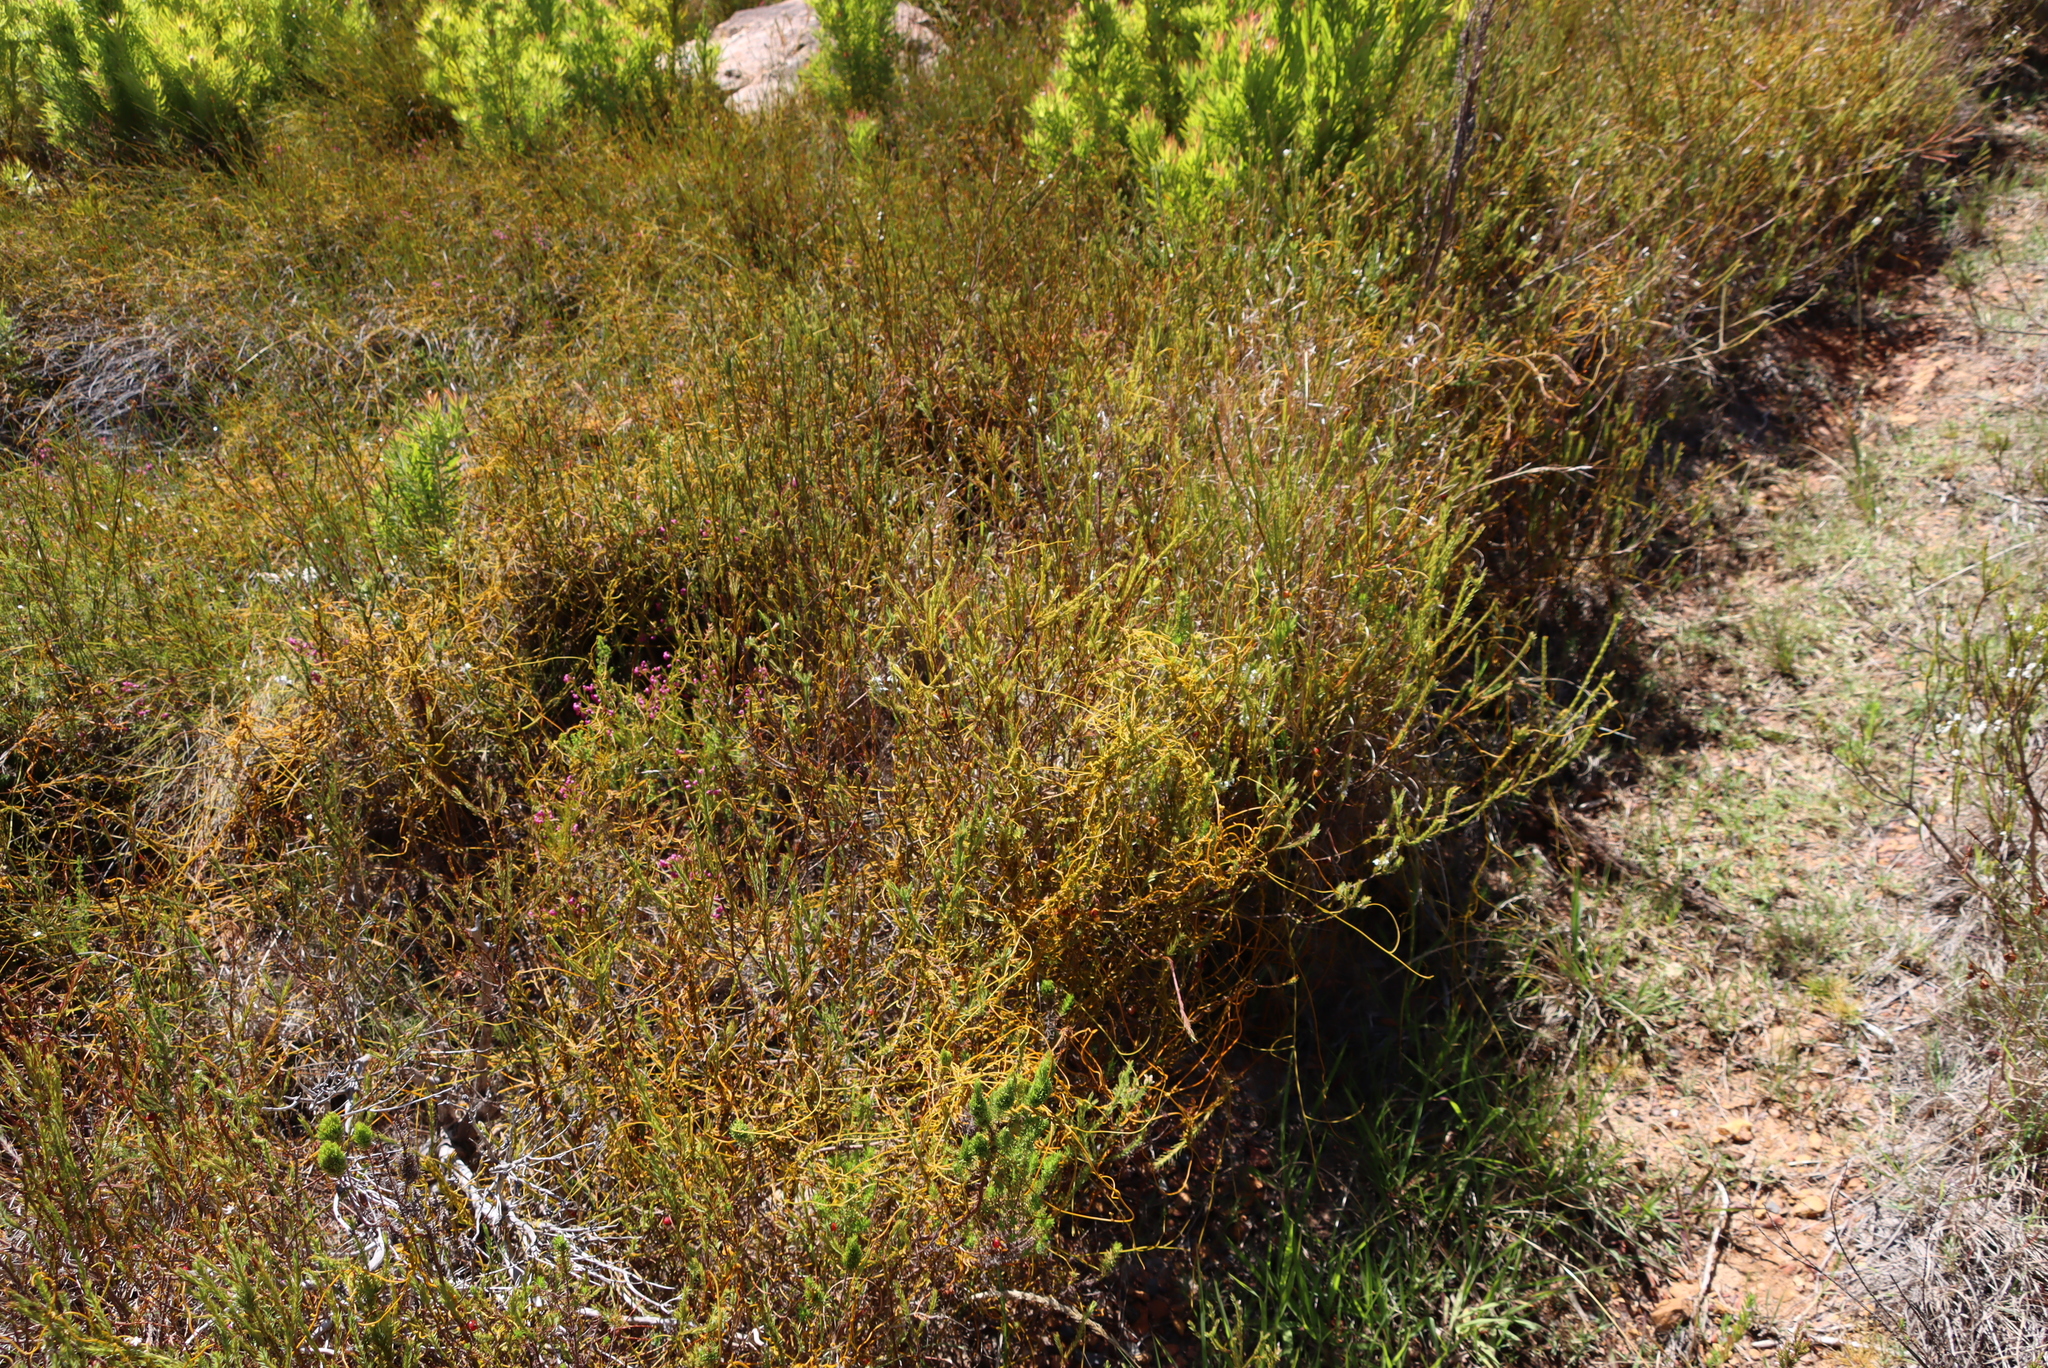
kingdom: Plantae
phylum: Tracheophyta
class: Magnoliopsida
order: Laurales
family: Lauraceae
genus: Cassytha
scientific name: Cassytha ciliolata
